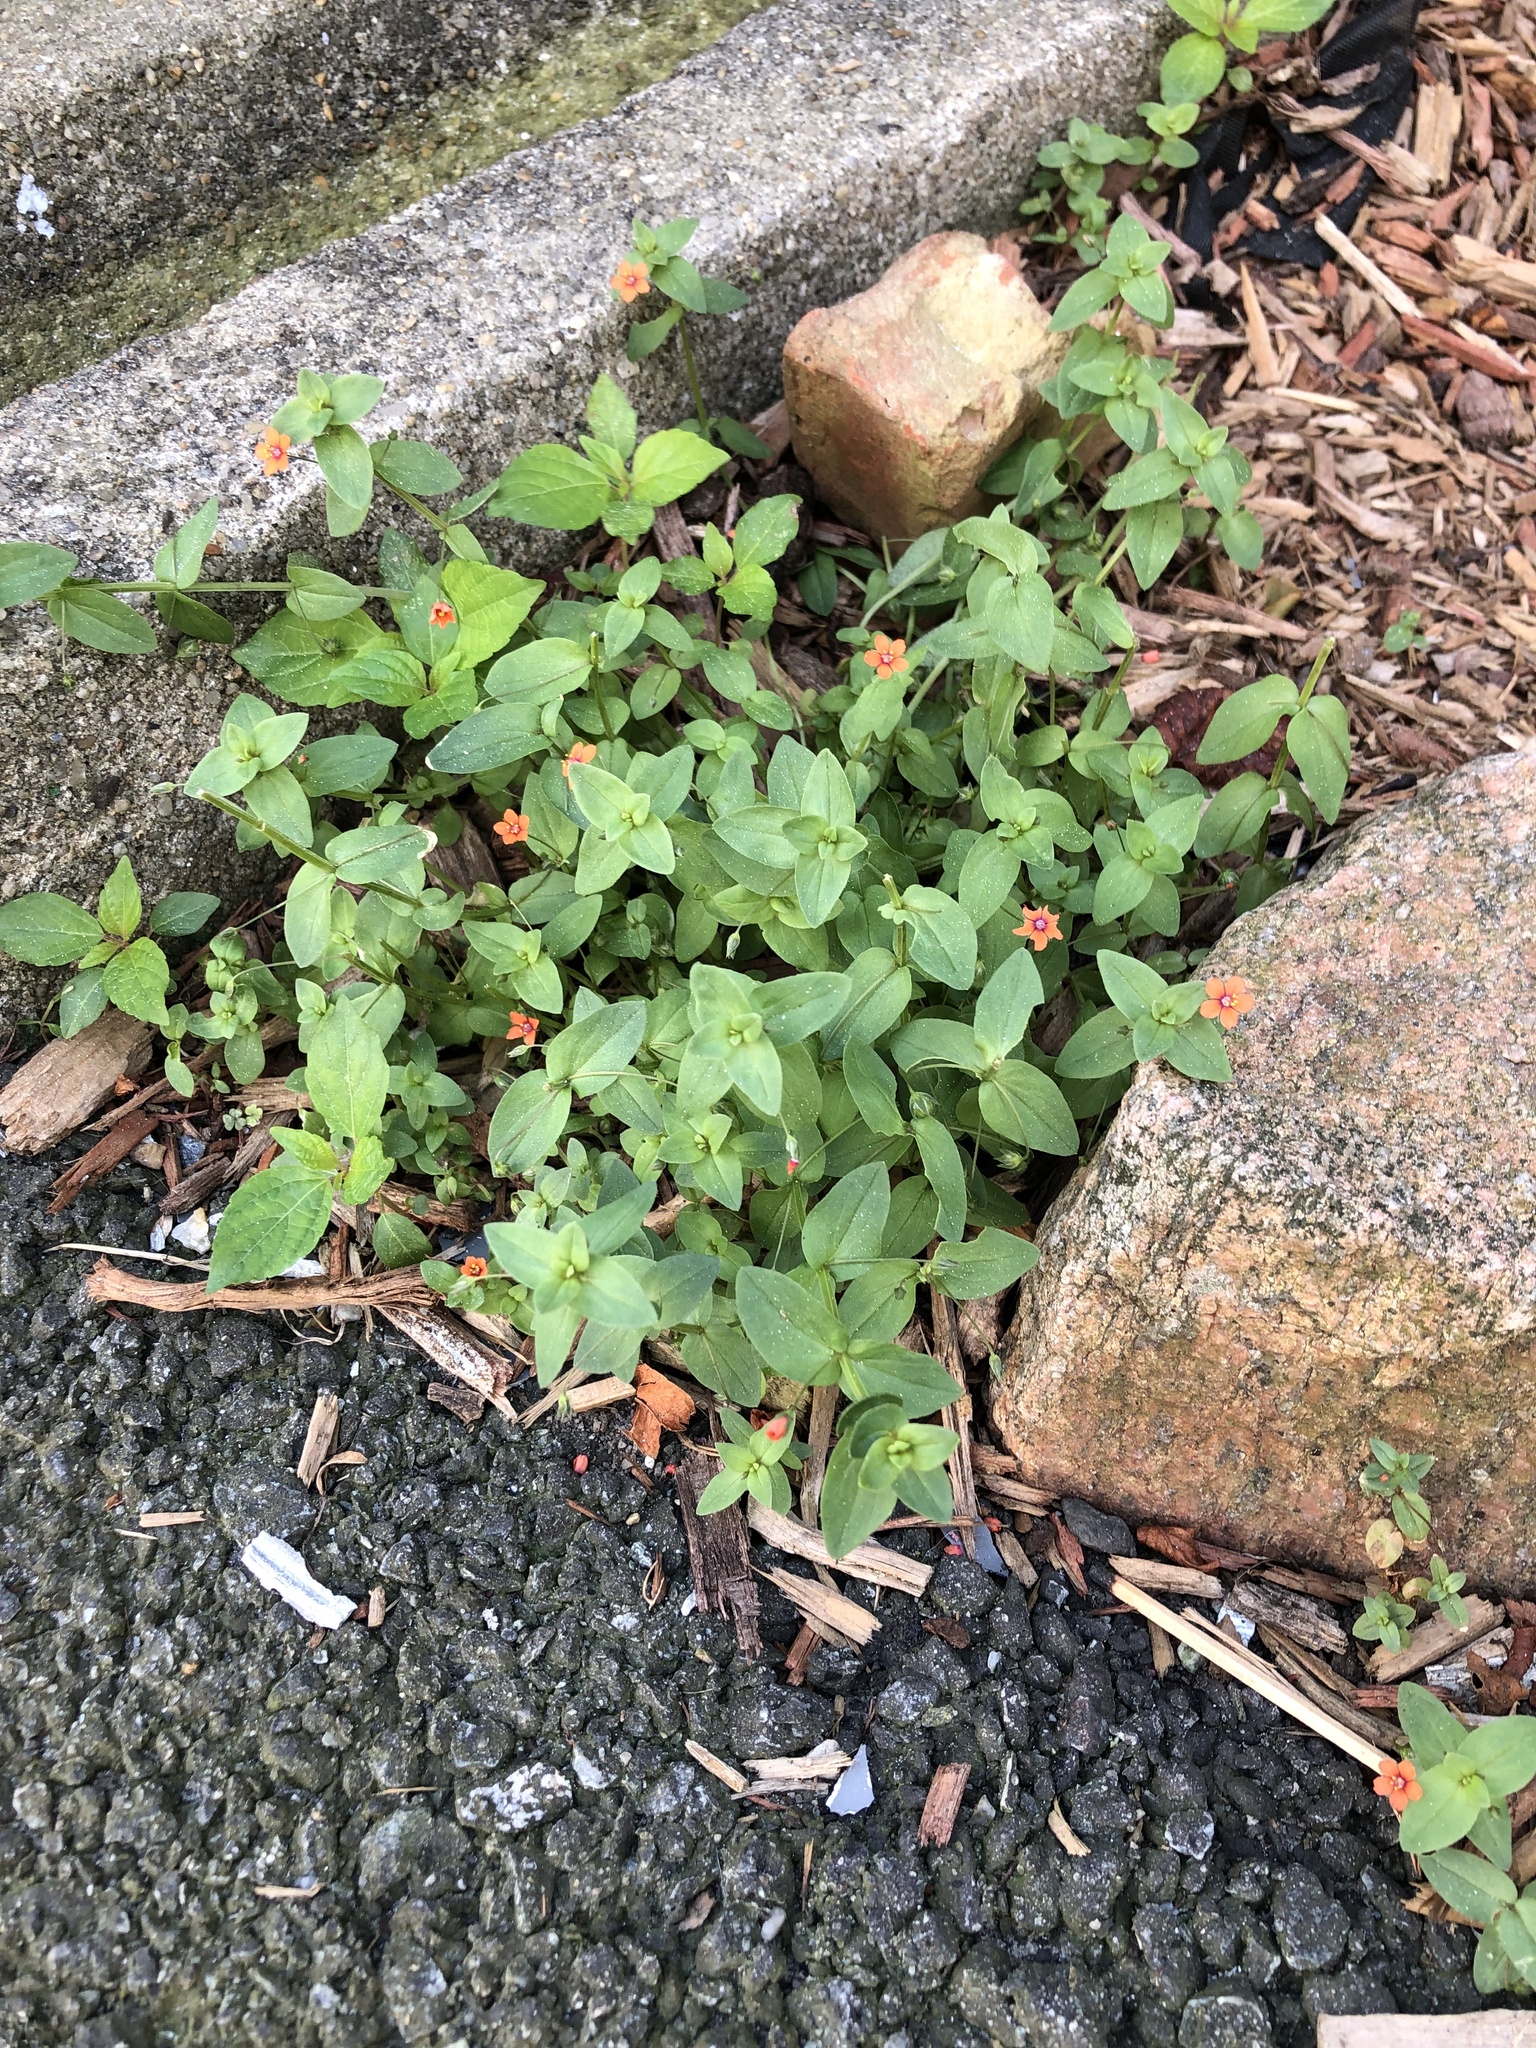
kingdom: Plantae
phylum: Tracheophyta
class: Magnoliopsida
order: Ericales
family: Primulaceae
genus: Lysimachia
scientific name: Lysimachia arvensis
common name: Scarlet pimpernel
